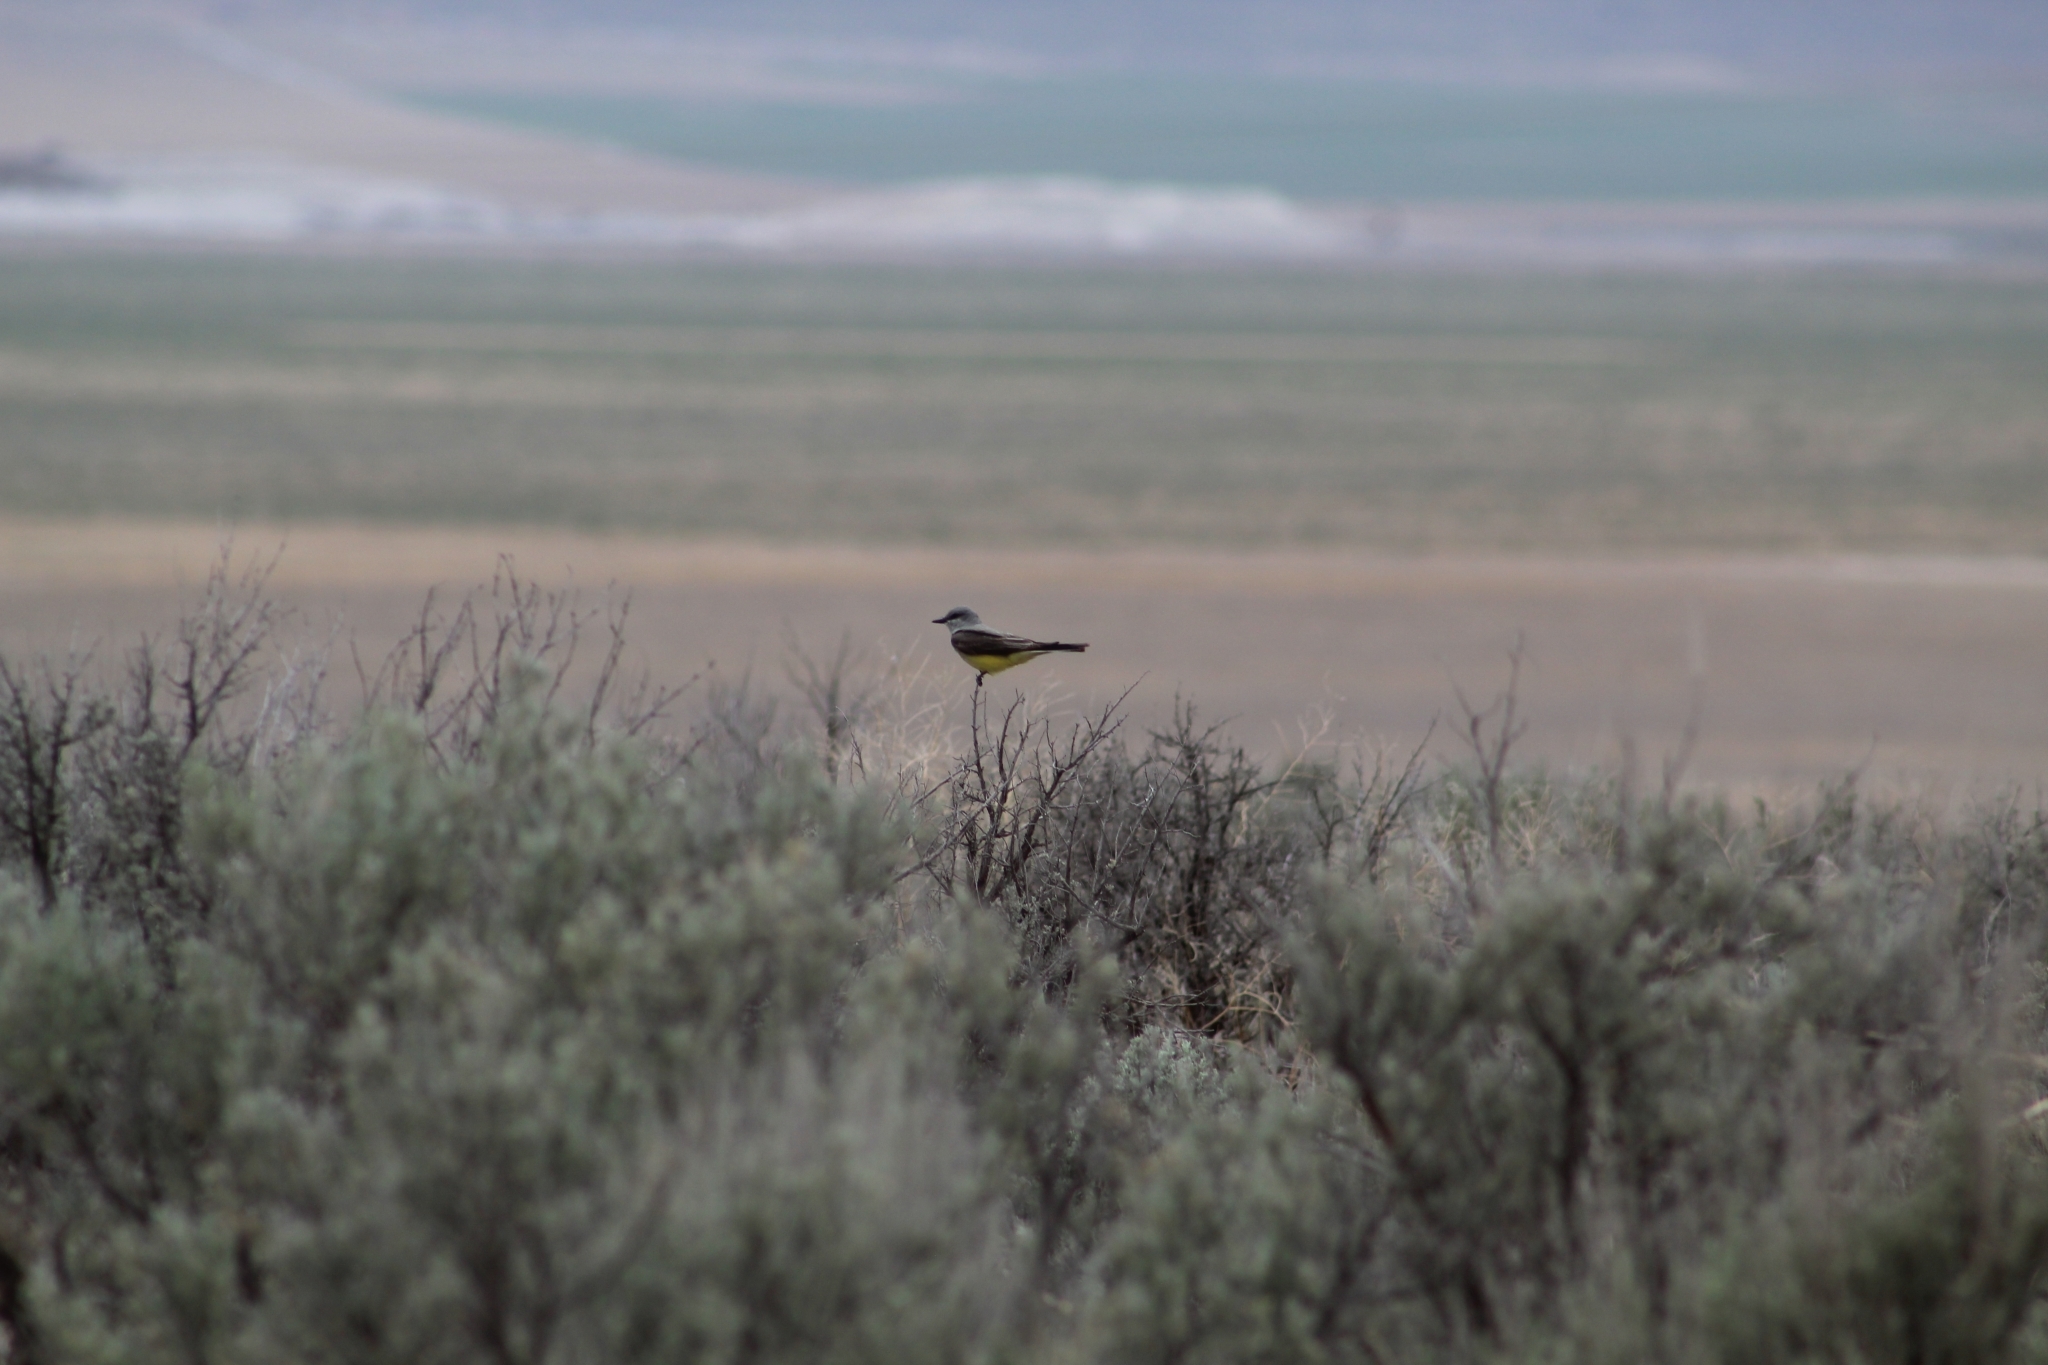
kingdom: Animalia
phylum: Chordata
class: Aves
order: Passeriformes
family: Tyrannidae
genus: Tyrannus
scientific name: Tyrannus verticalis
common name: Western kingbird
